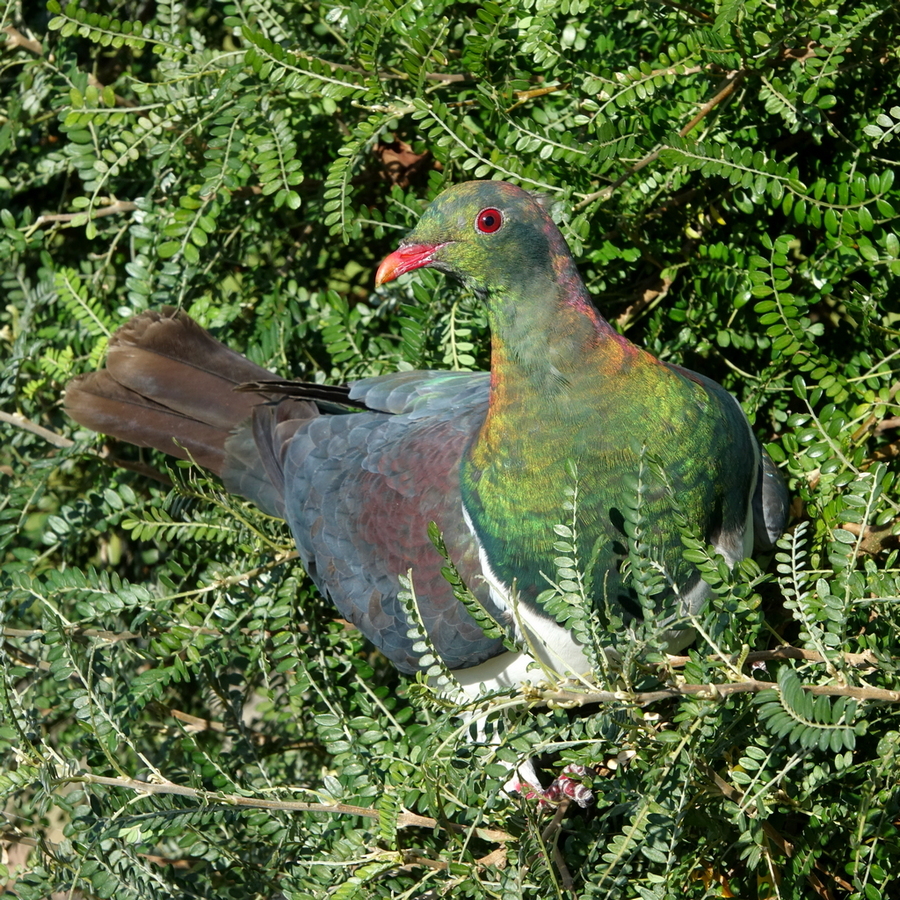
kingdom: Animalia
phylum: Chordata
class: Aves
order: Columbiformes
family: Columbidae
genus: Hemiphaga
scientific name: Hemiphaga novaeseelandiae
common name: New zealand pigeon
